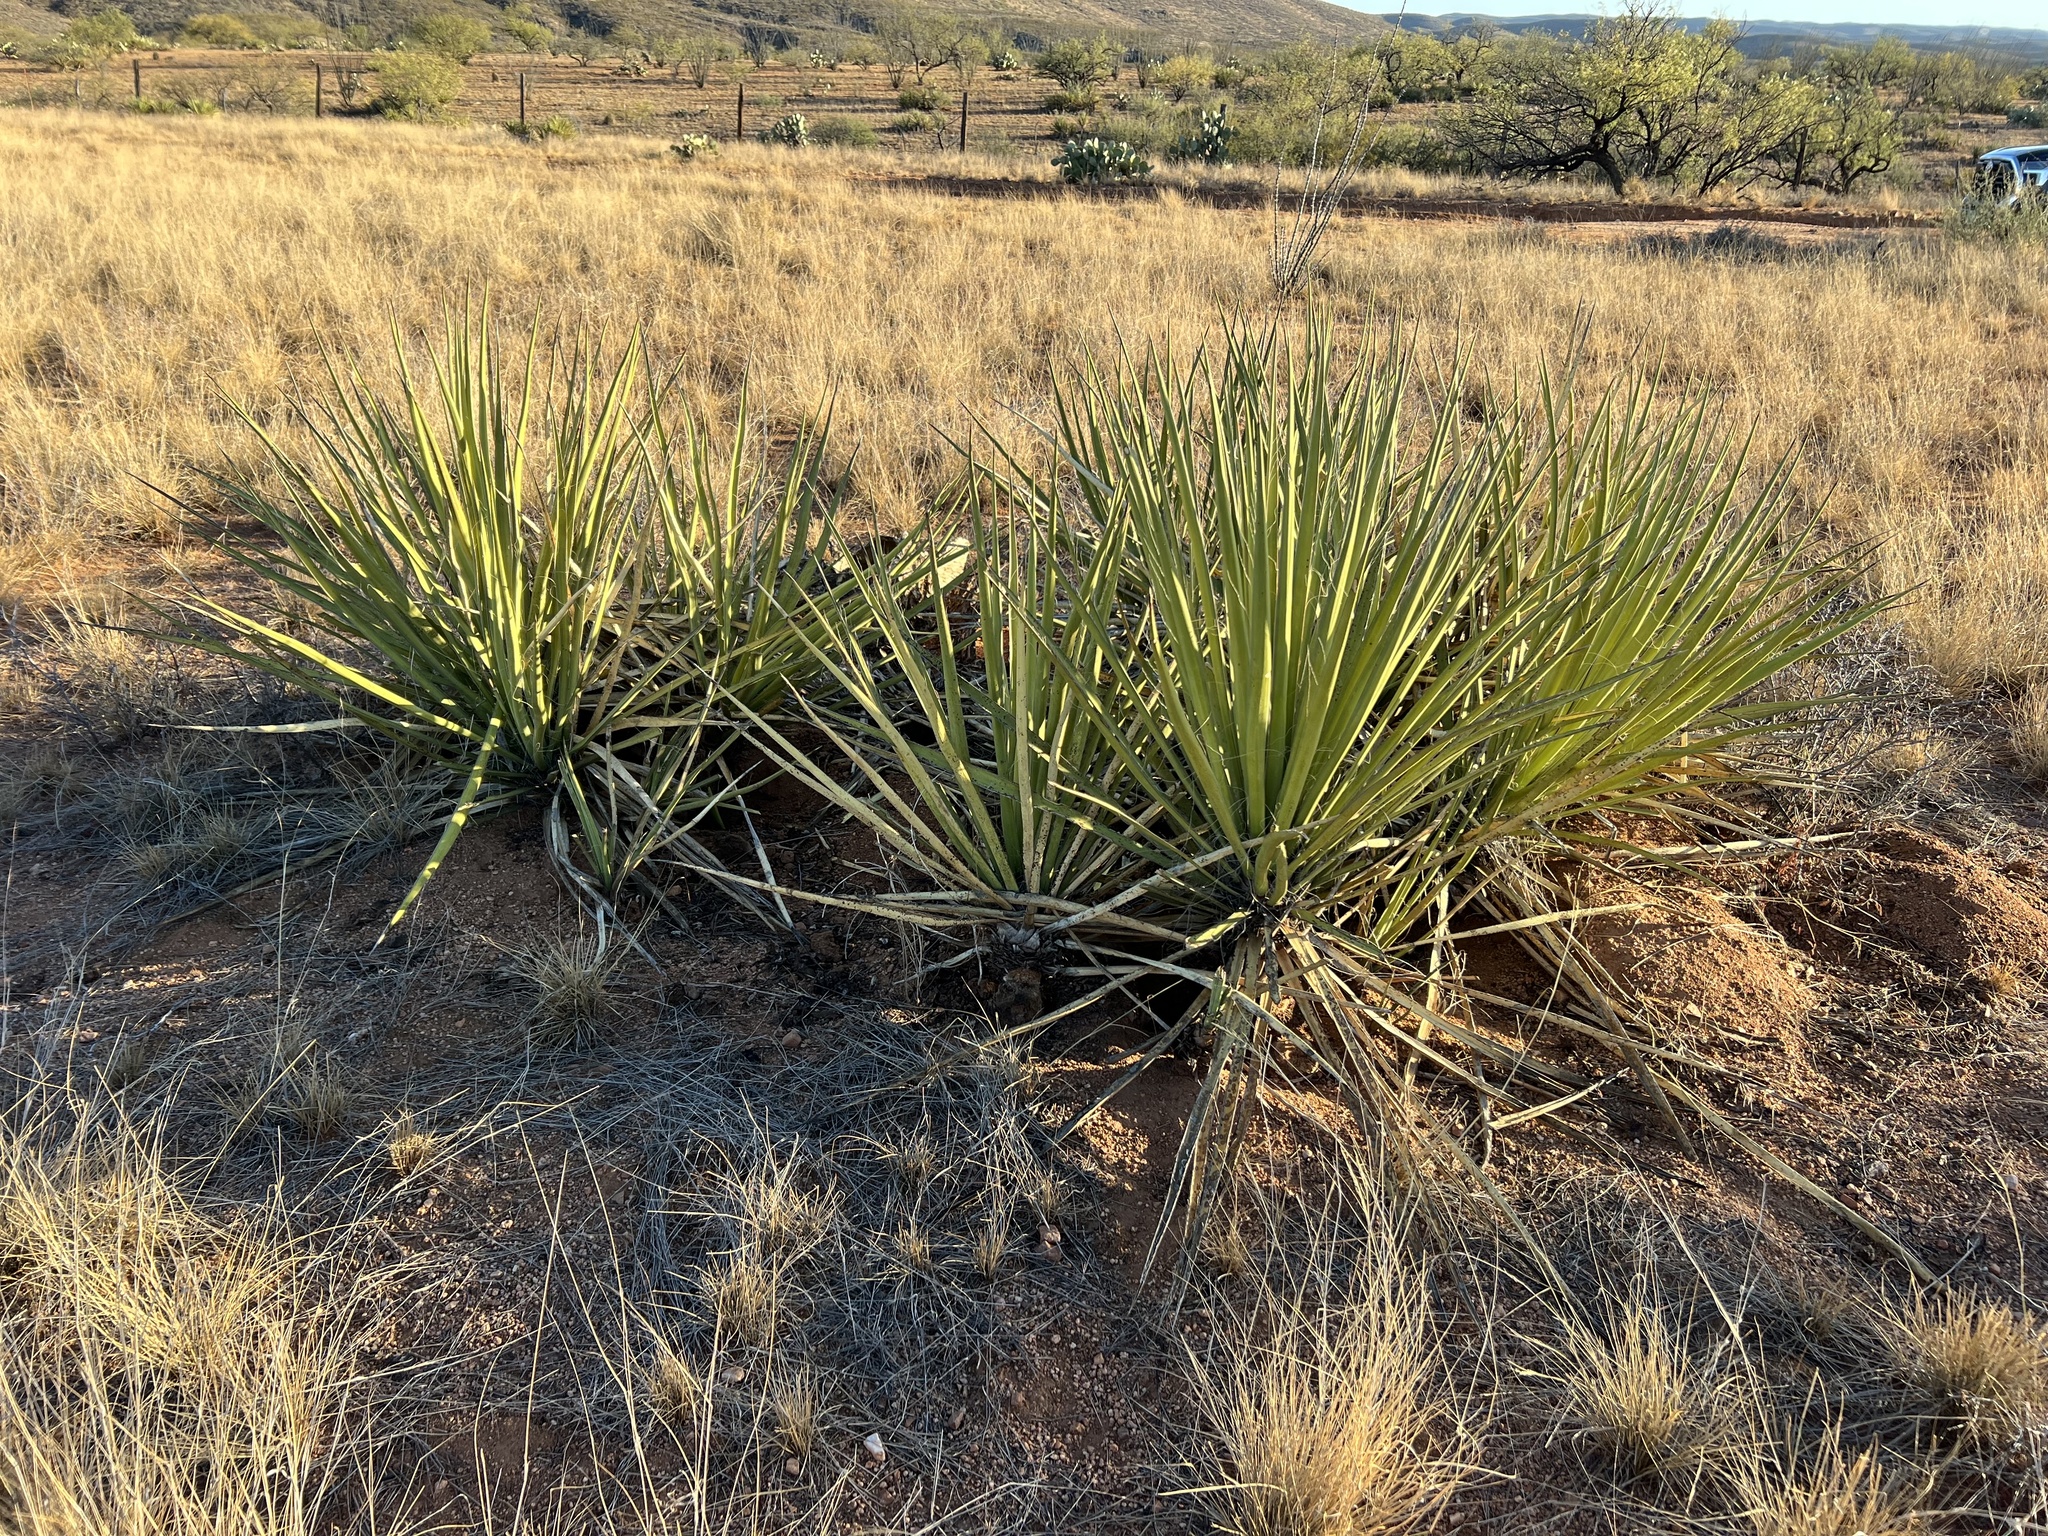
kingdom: Plantae
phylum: Tracheophyta
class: Liliopsida
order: Asparagales
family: Asparagaceae
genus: Yucca
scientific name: Yucca baccata
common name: Banana yucca
